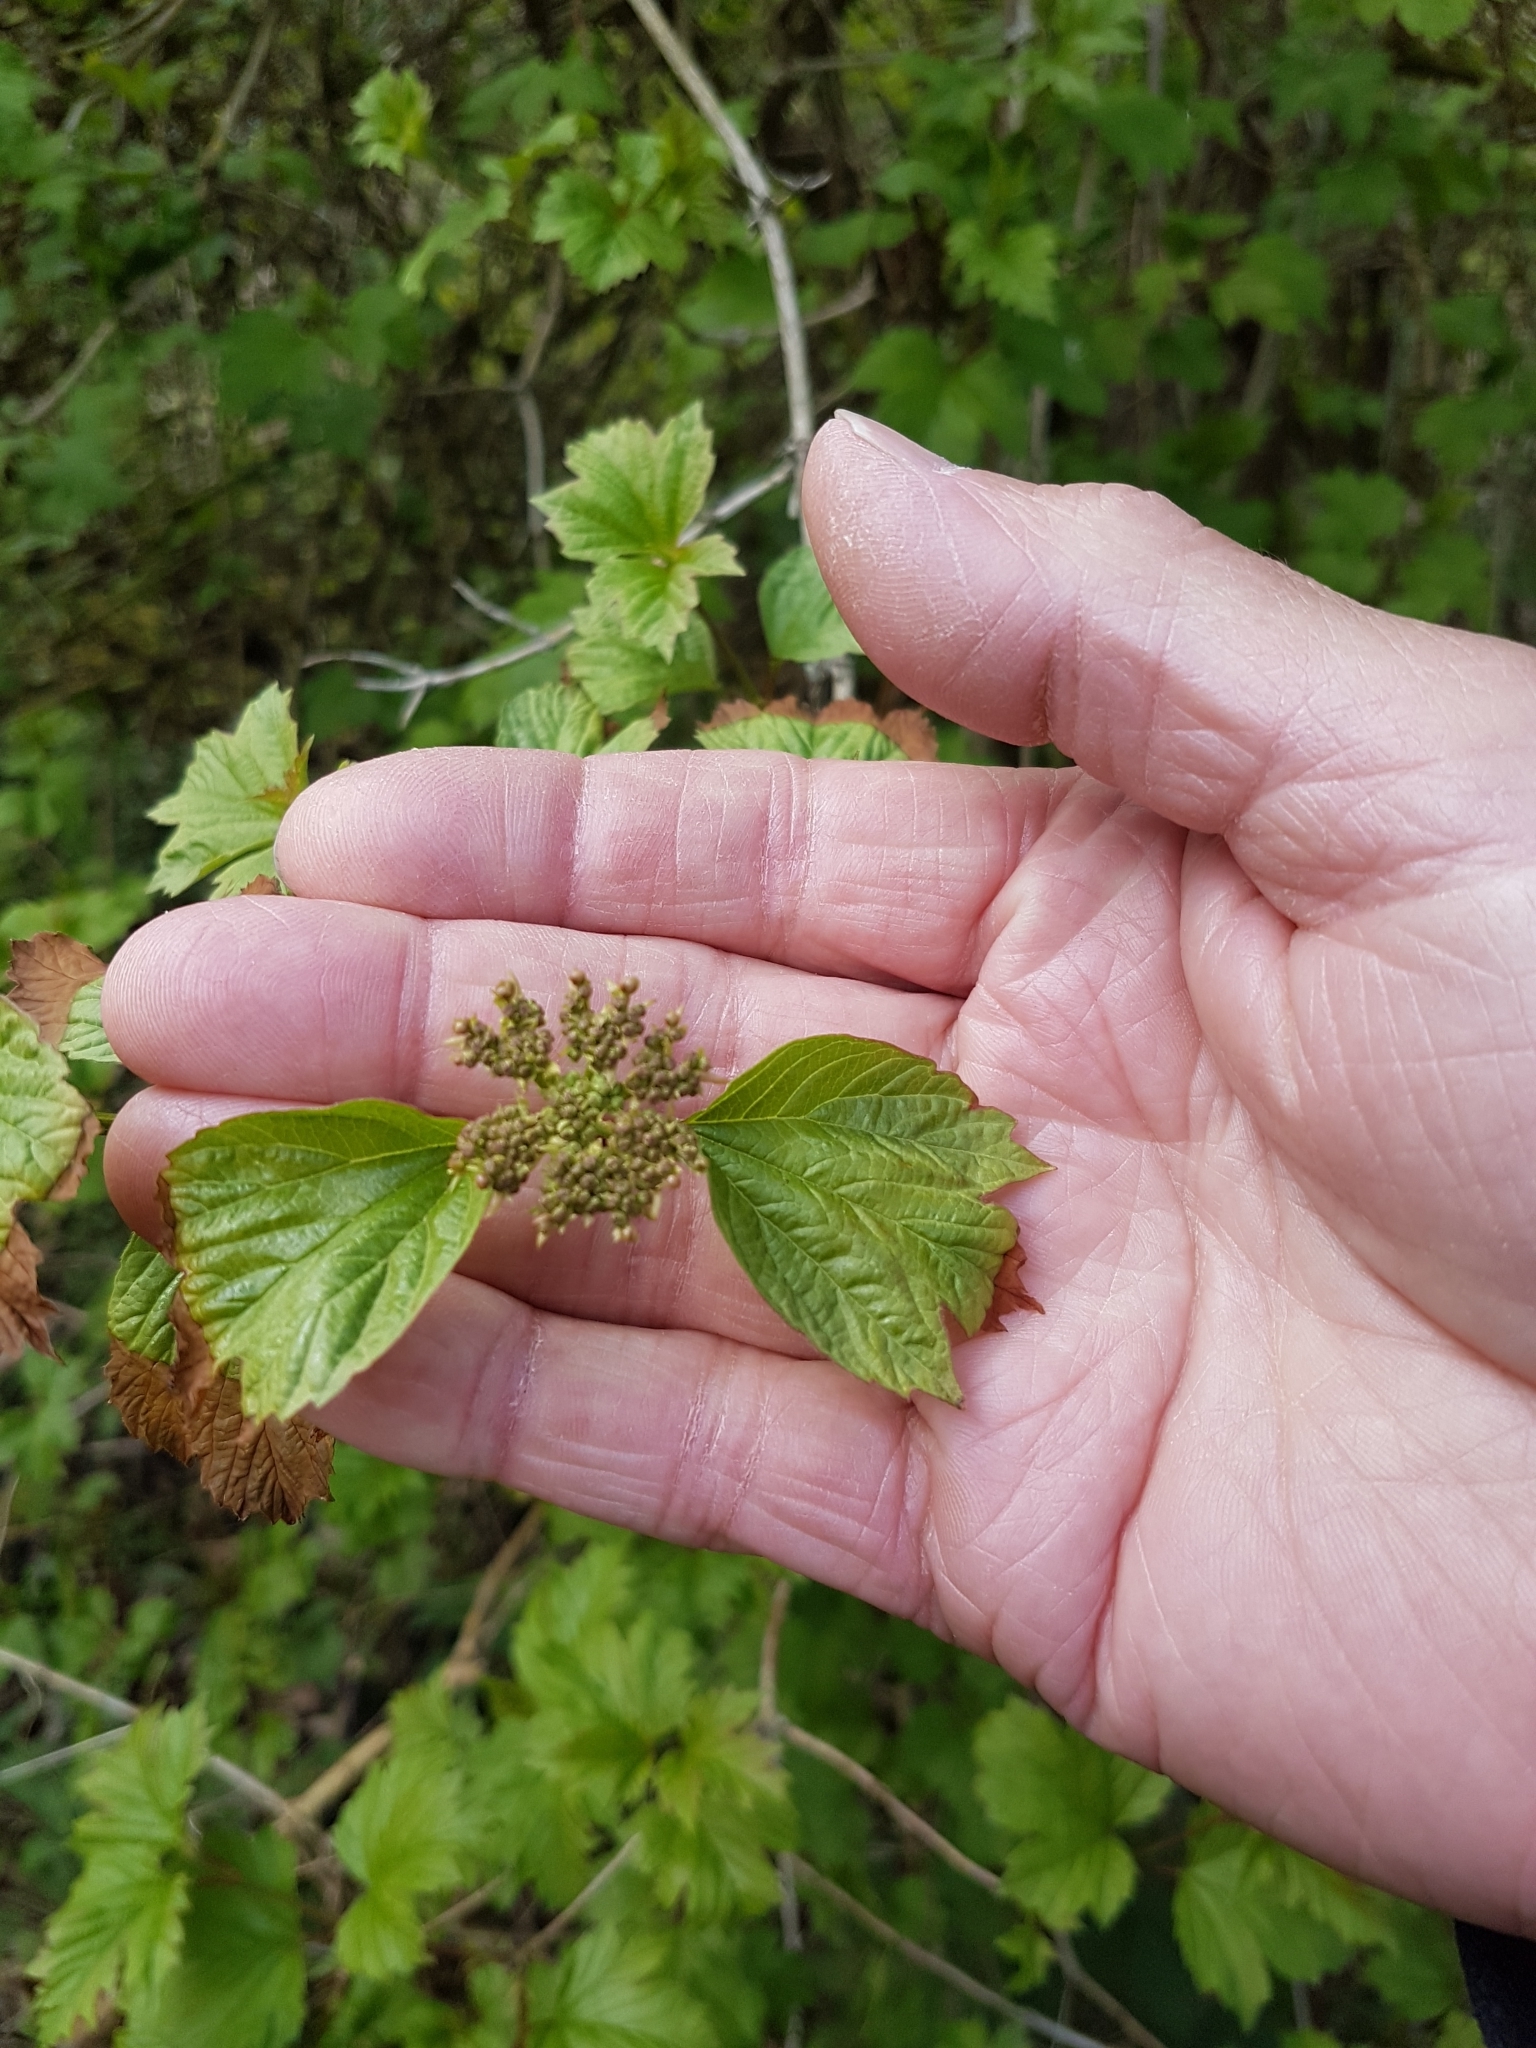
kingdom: Plantae
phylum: Tracheophyta
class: Magnoliopsida
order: Dipsacales
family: Viburnaceae
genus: Viburnum
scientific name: Viburnum opulus
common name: Guelder-rose
